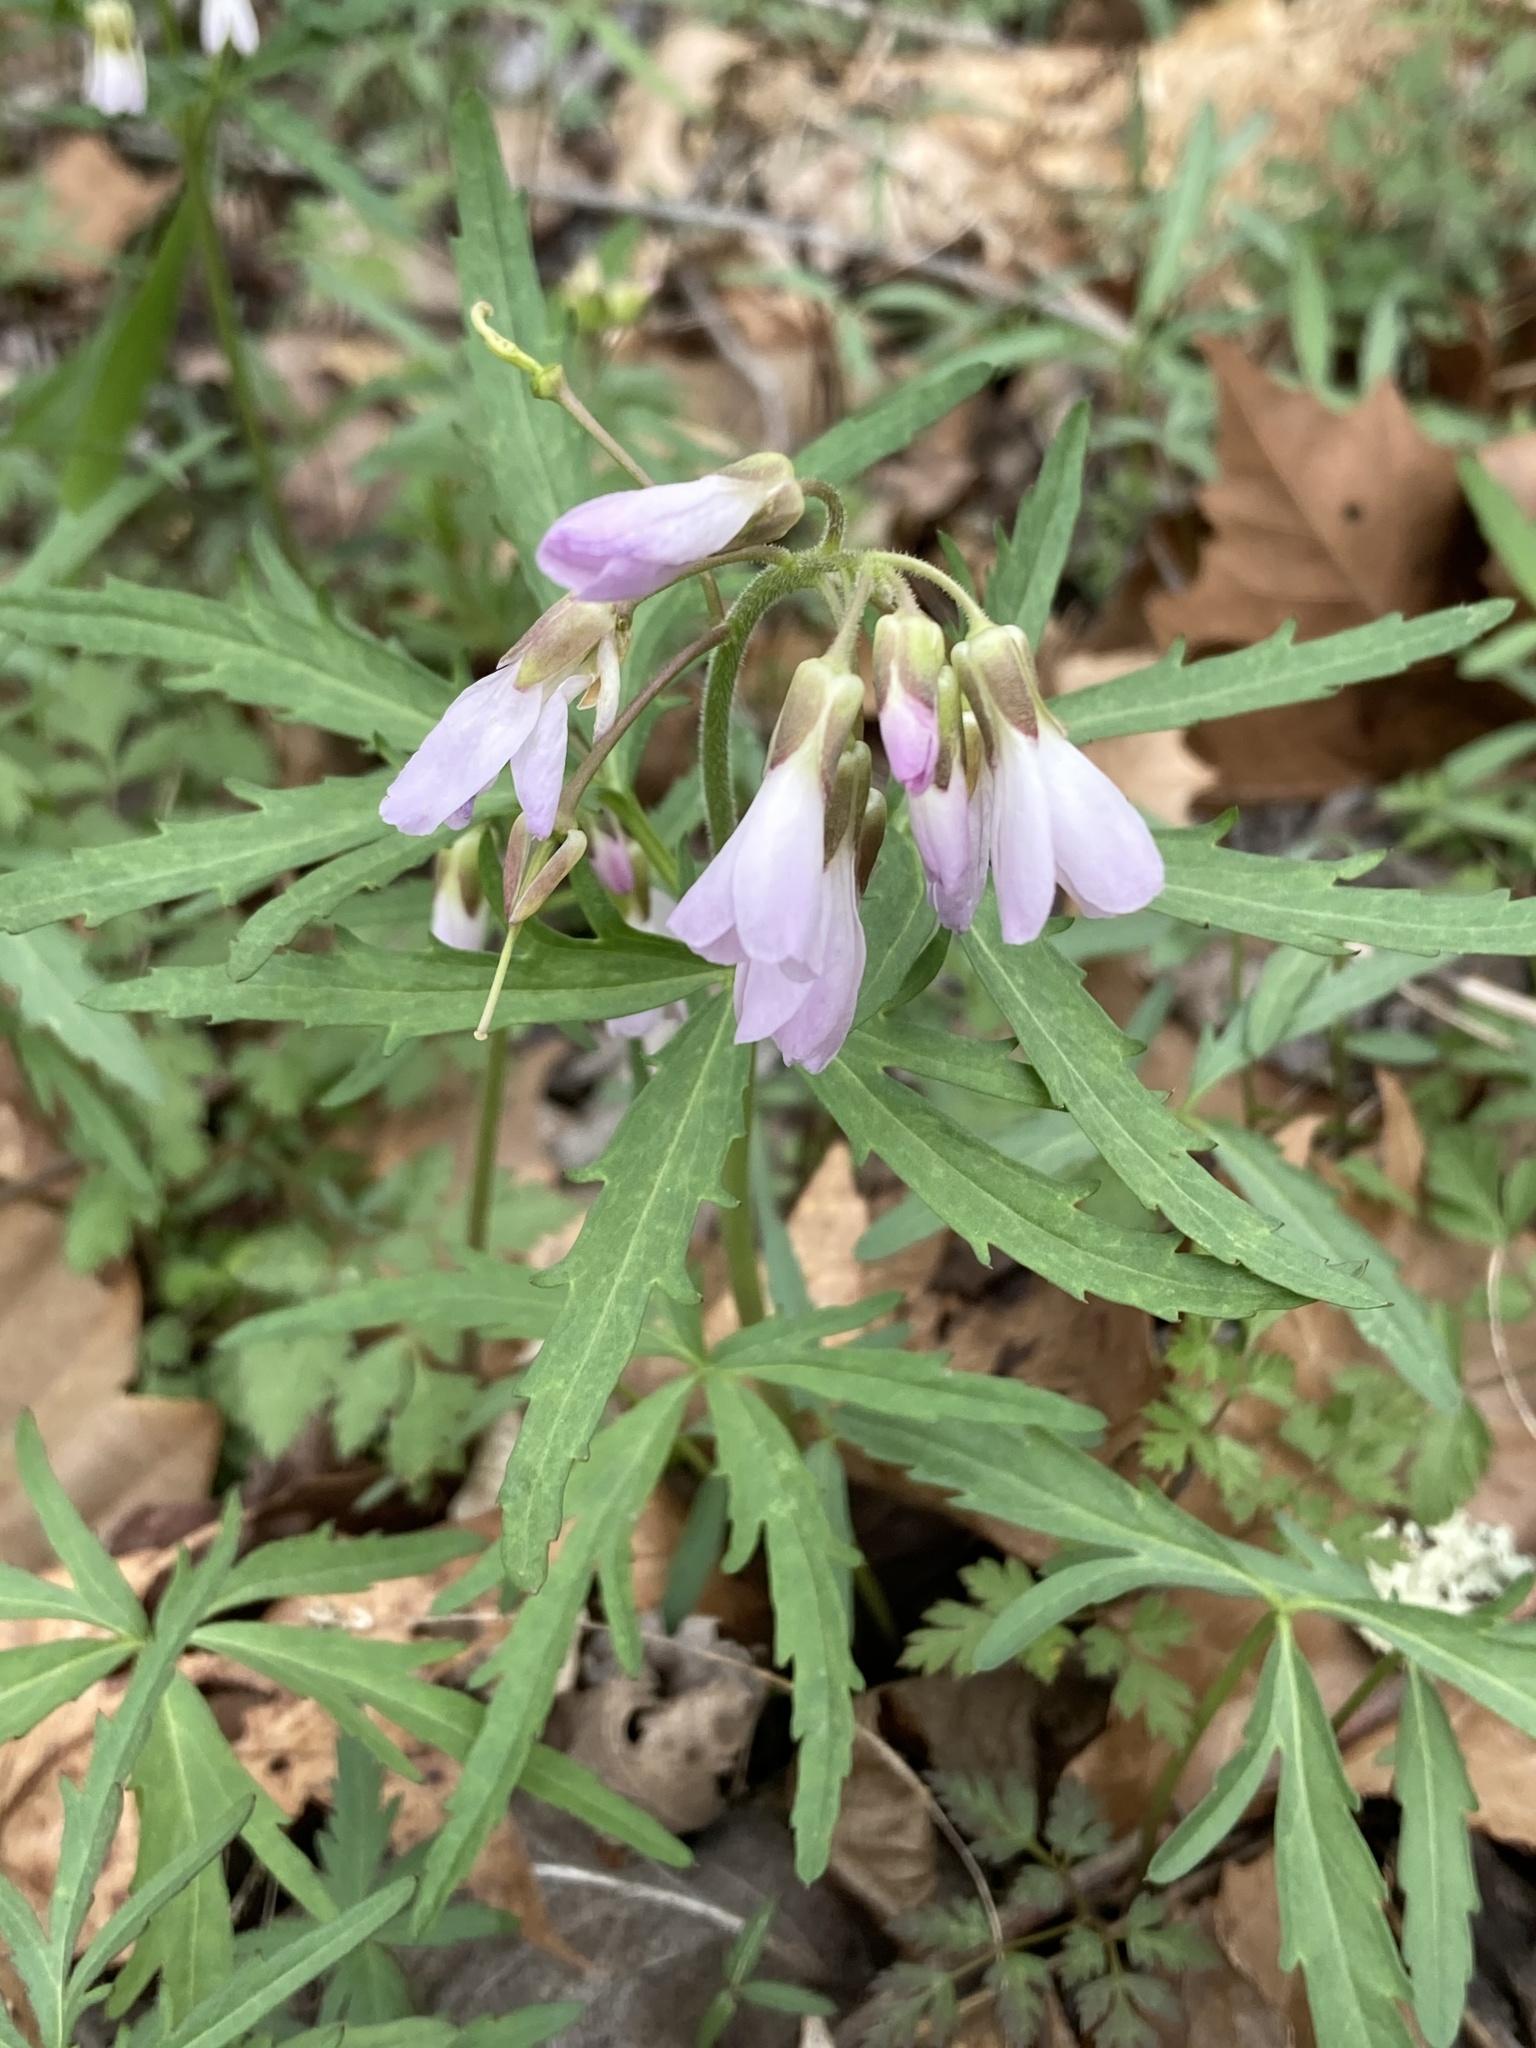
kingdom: Plantae
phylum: Tracheophyta
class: Magnoliopsida
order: Brassicales
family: Brassicaceae
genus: Cardamine
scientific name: Cardamine concatenata
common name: Cut-leaf toothcup
